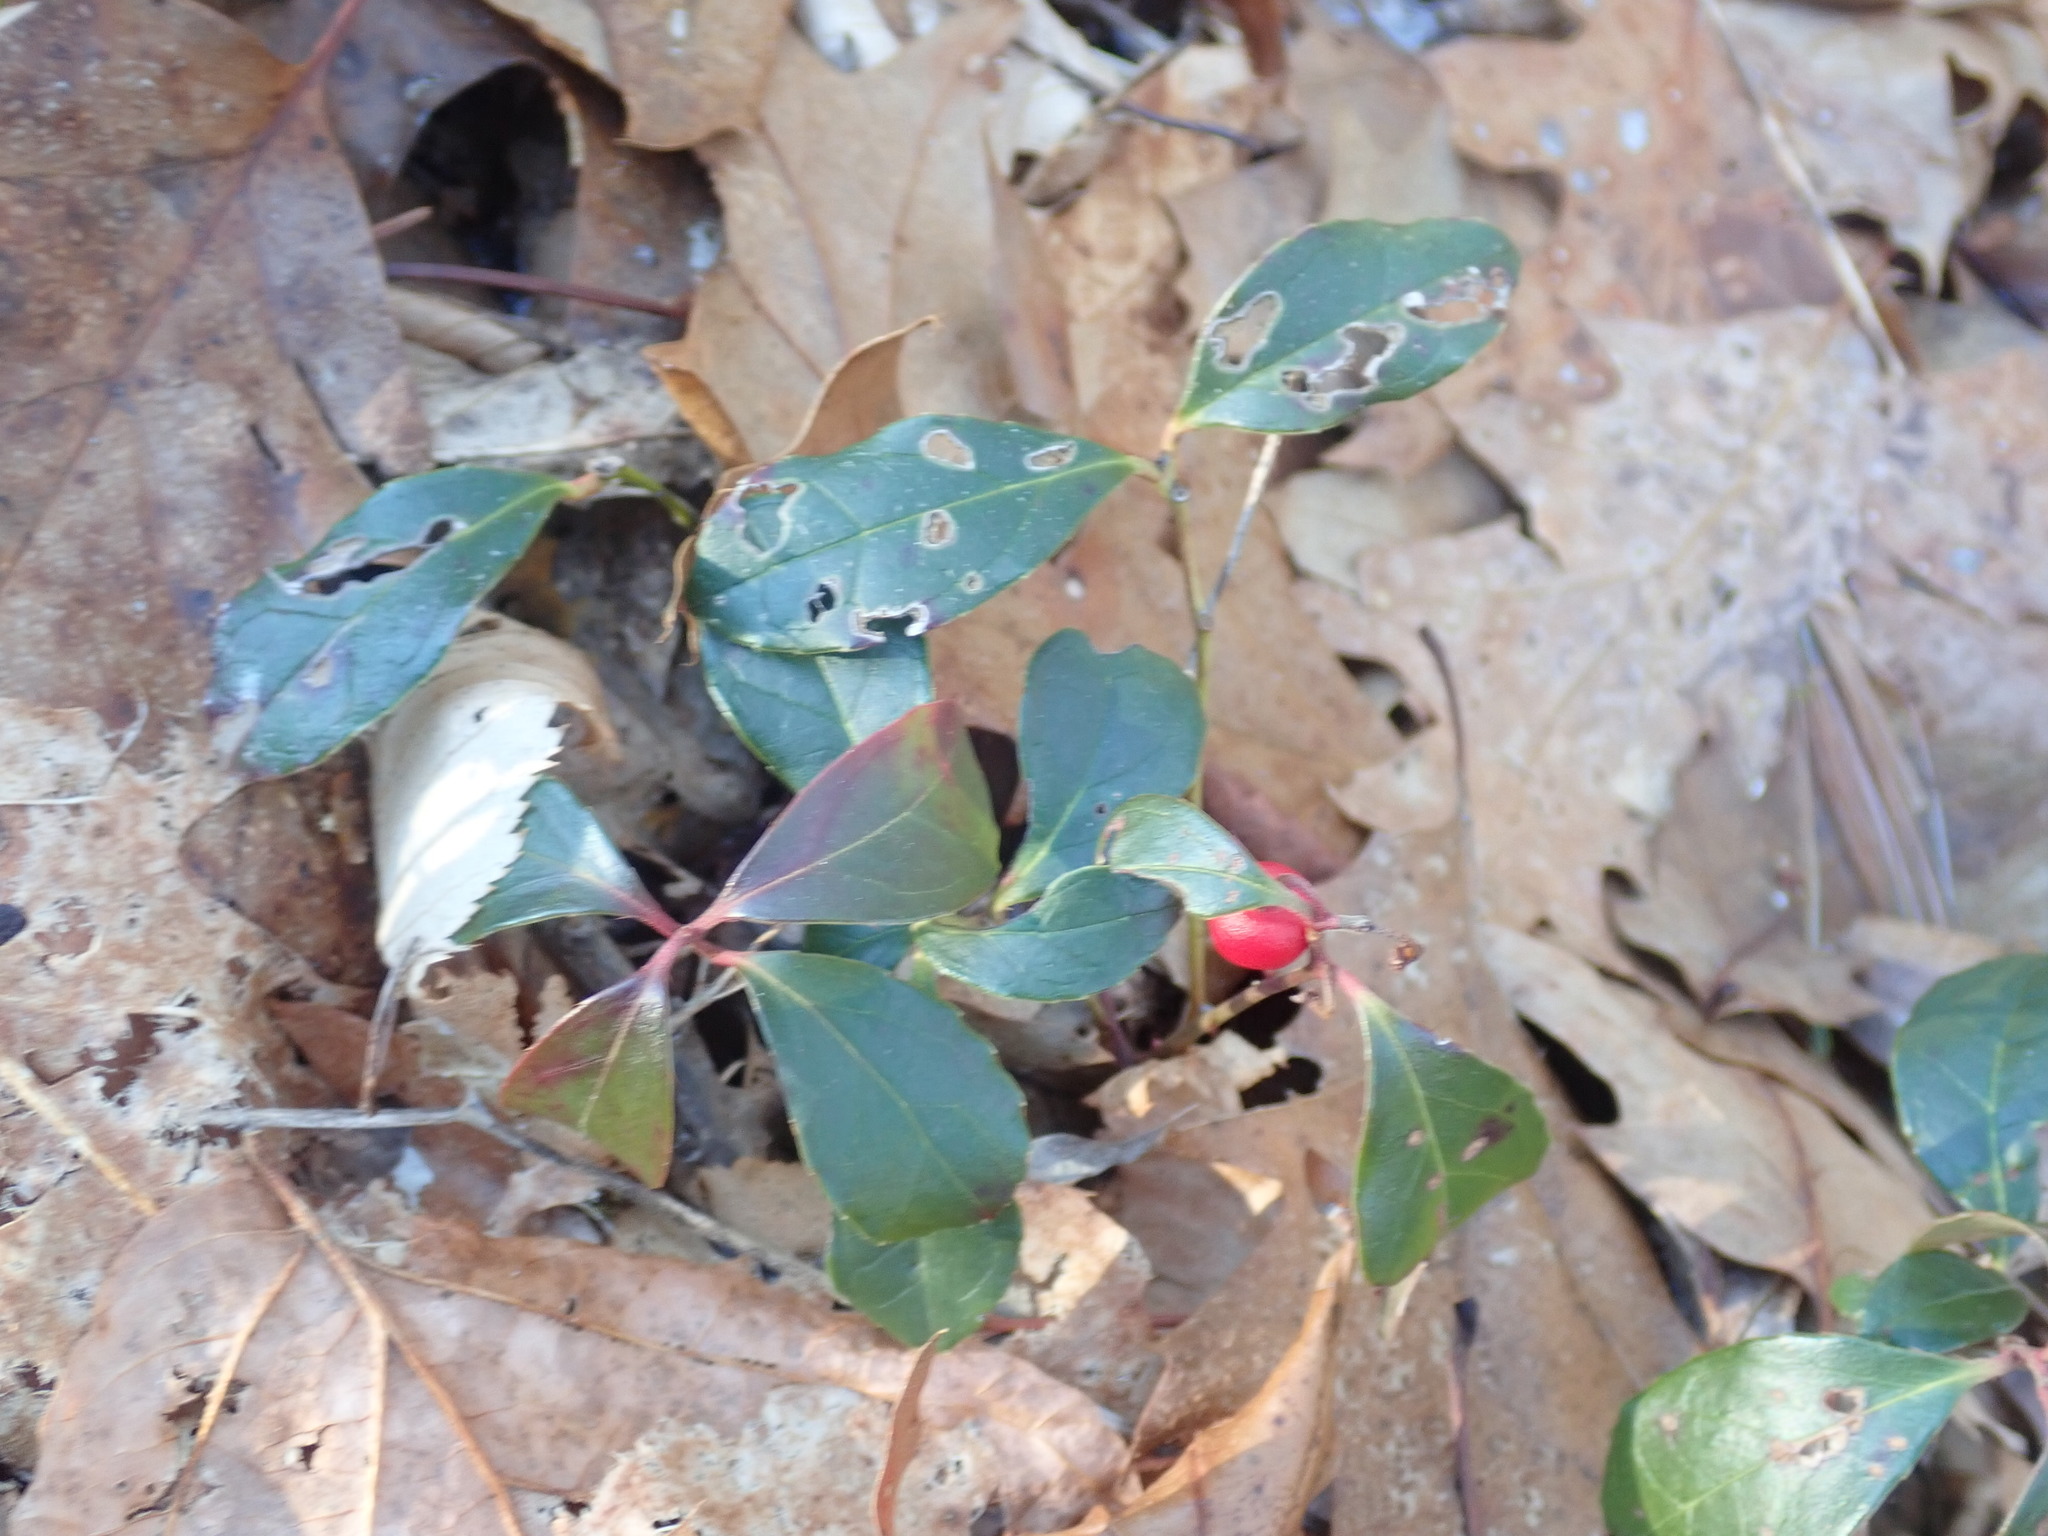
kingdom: Plantae
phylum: Tracheophyta
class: Magnoliopsida
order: Ericales
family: Ericaceae
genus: Gaultheria
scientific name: Gaultheria procumbens
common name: Checkerberry
